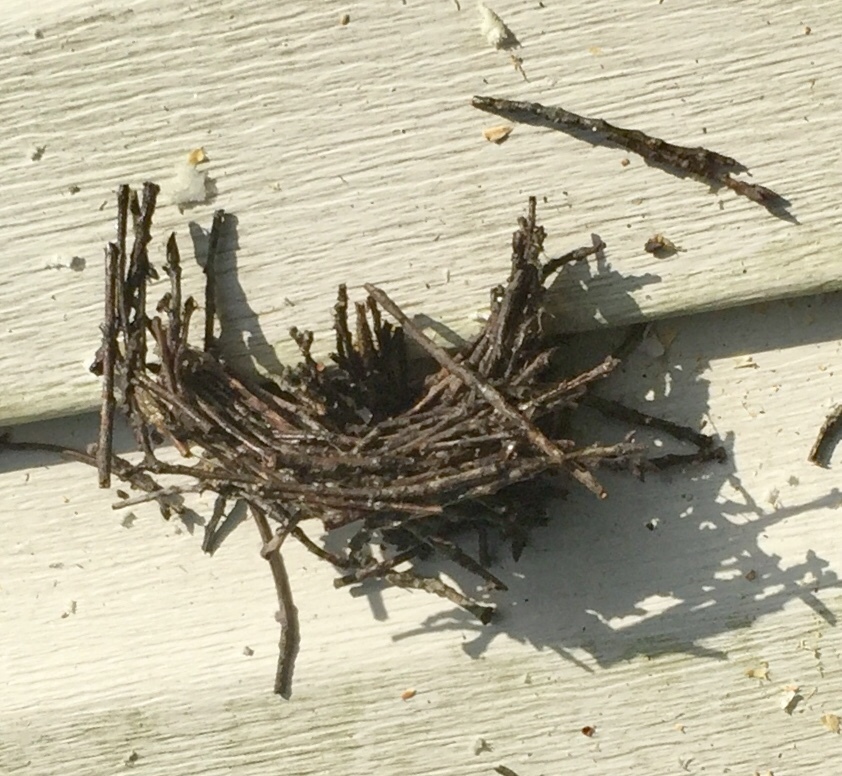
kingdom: Animalia
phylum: Chordata
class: Aves
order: Apodiformes
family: Apodidae
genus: Chaetura
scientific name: Chaetura pelagica
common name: Chimney swift
